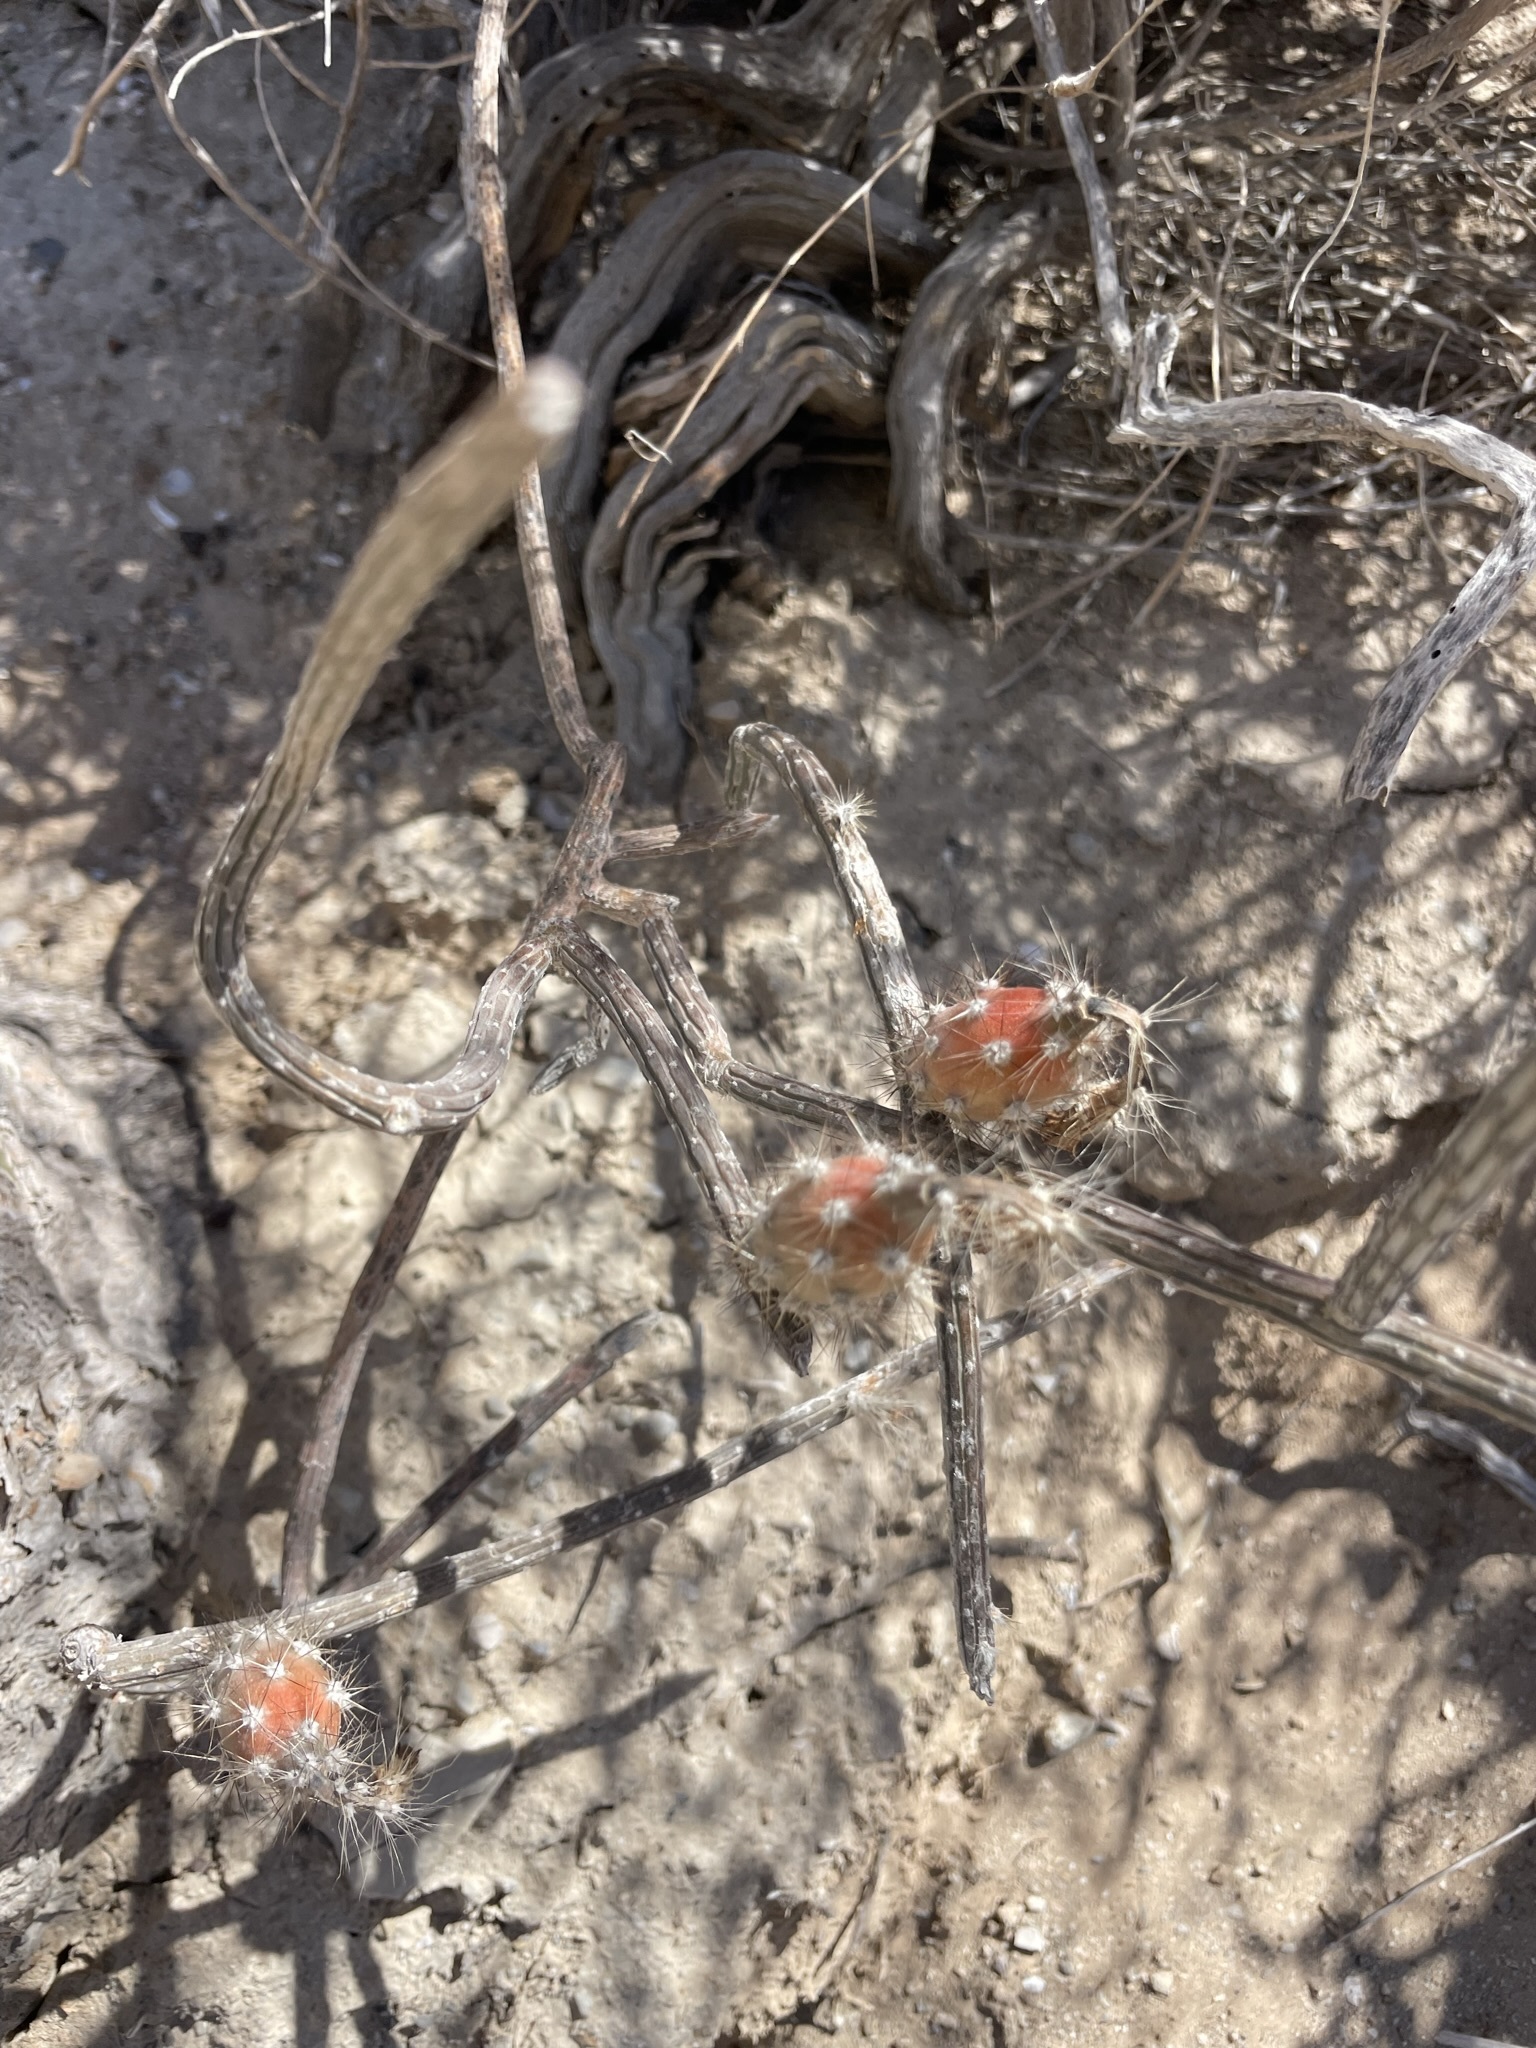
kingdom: Plantae
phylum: Tracheophyta
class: Magnoliopsida
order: Caryophyllales
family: Cactaceae
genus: Peniocereus
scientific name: Peniocereus striatus
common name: Gearstem cactus
